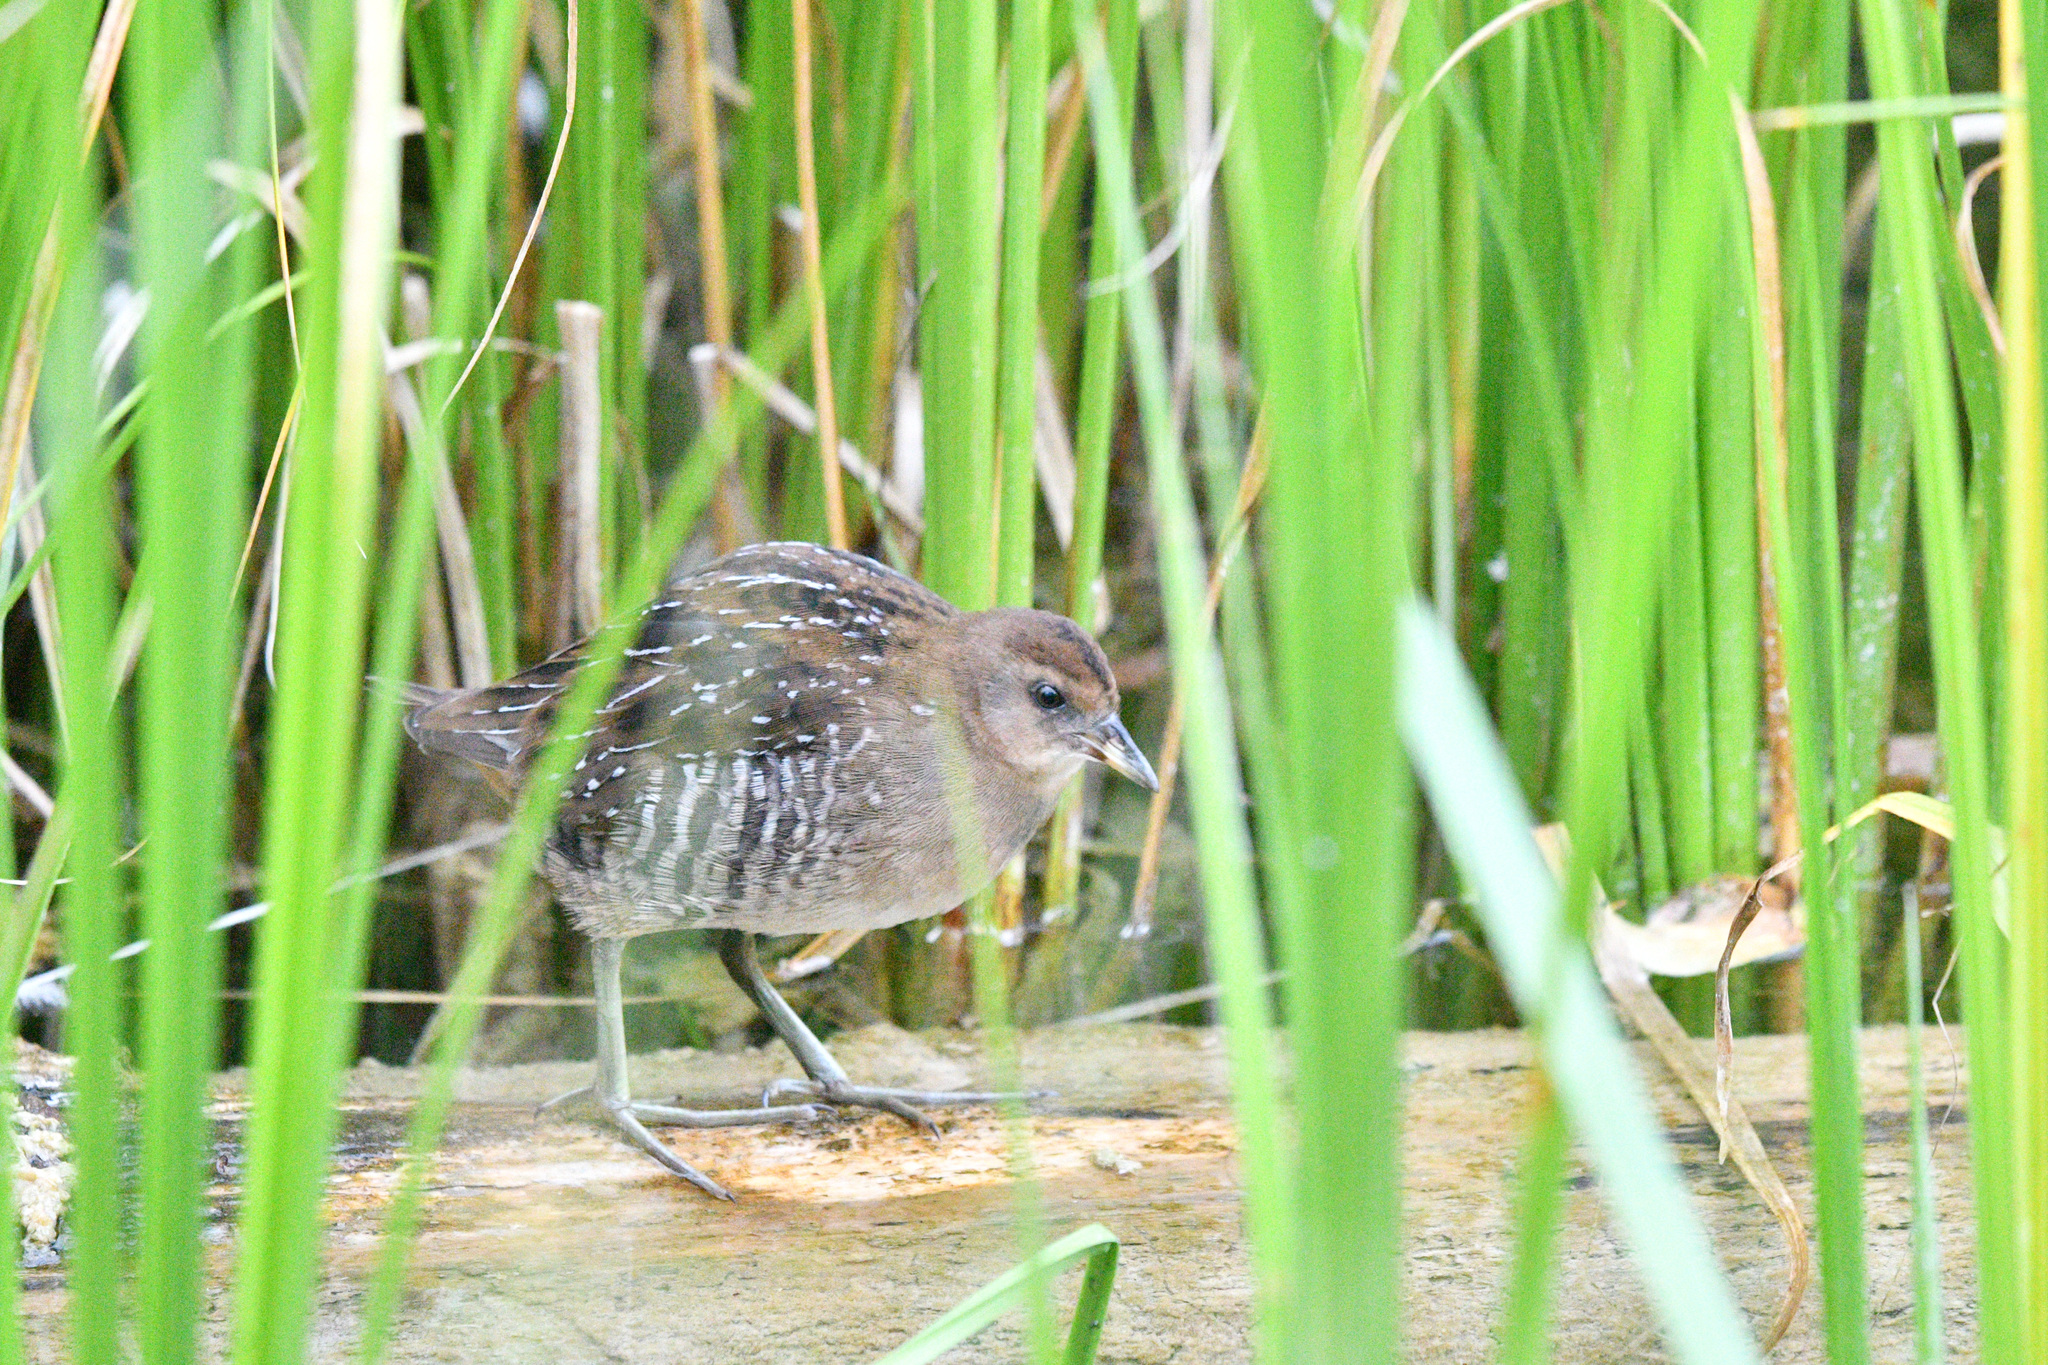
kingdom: Animalia
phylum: Chordata
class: Aves
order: Gruiformes
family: Rallidae
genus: Porzana
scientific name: Porzana carolina
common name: Sora
